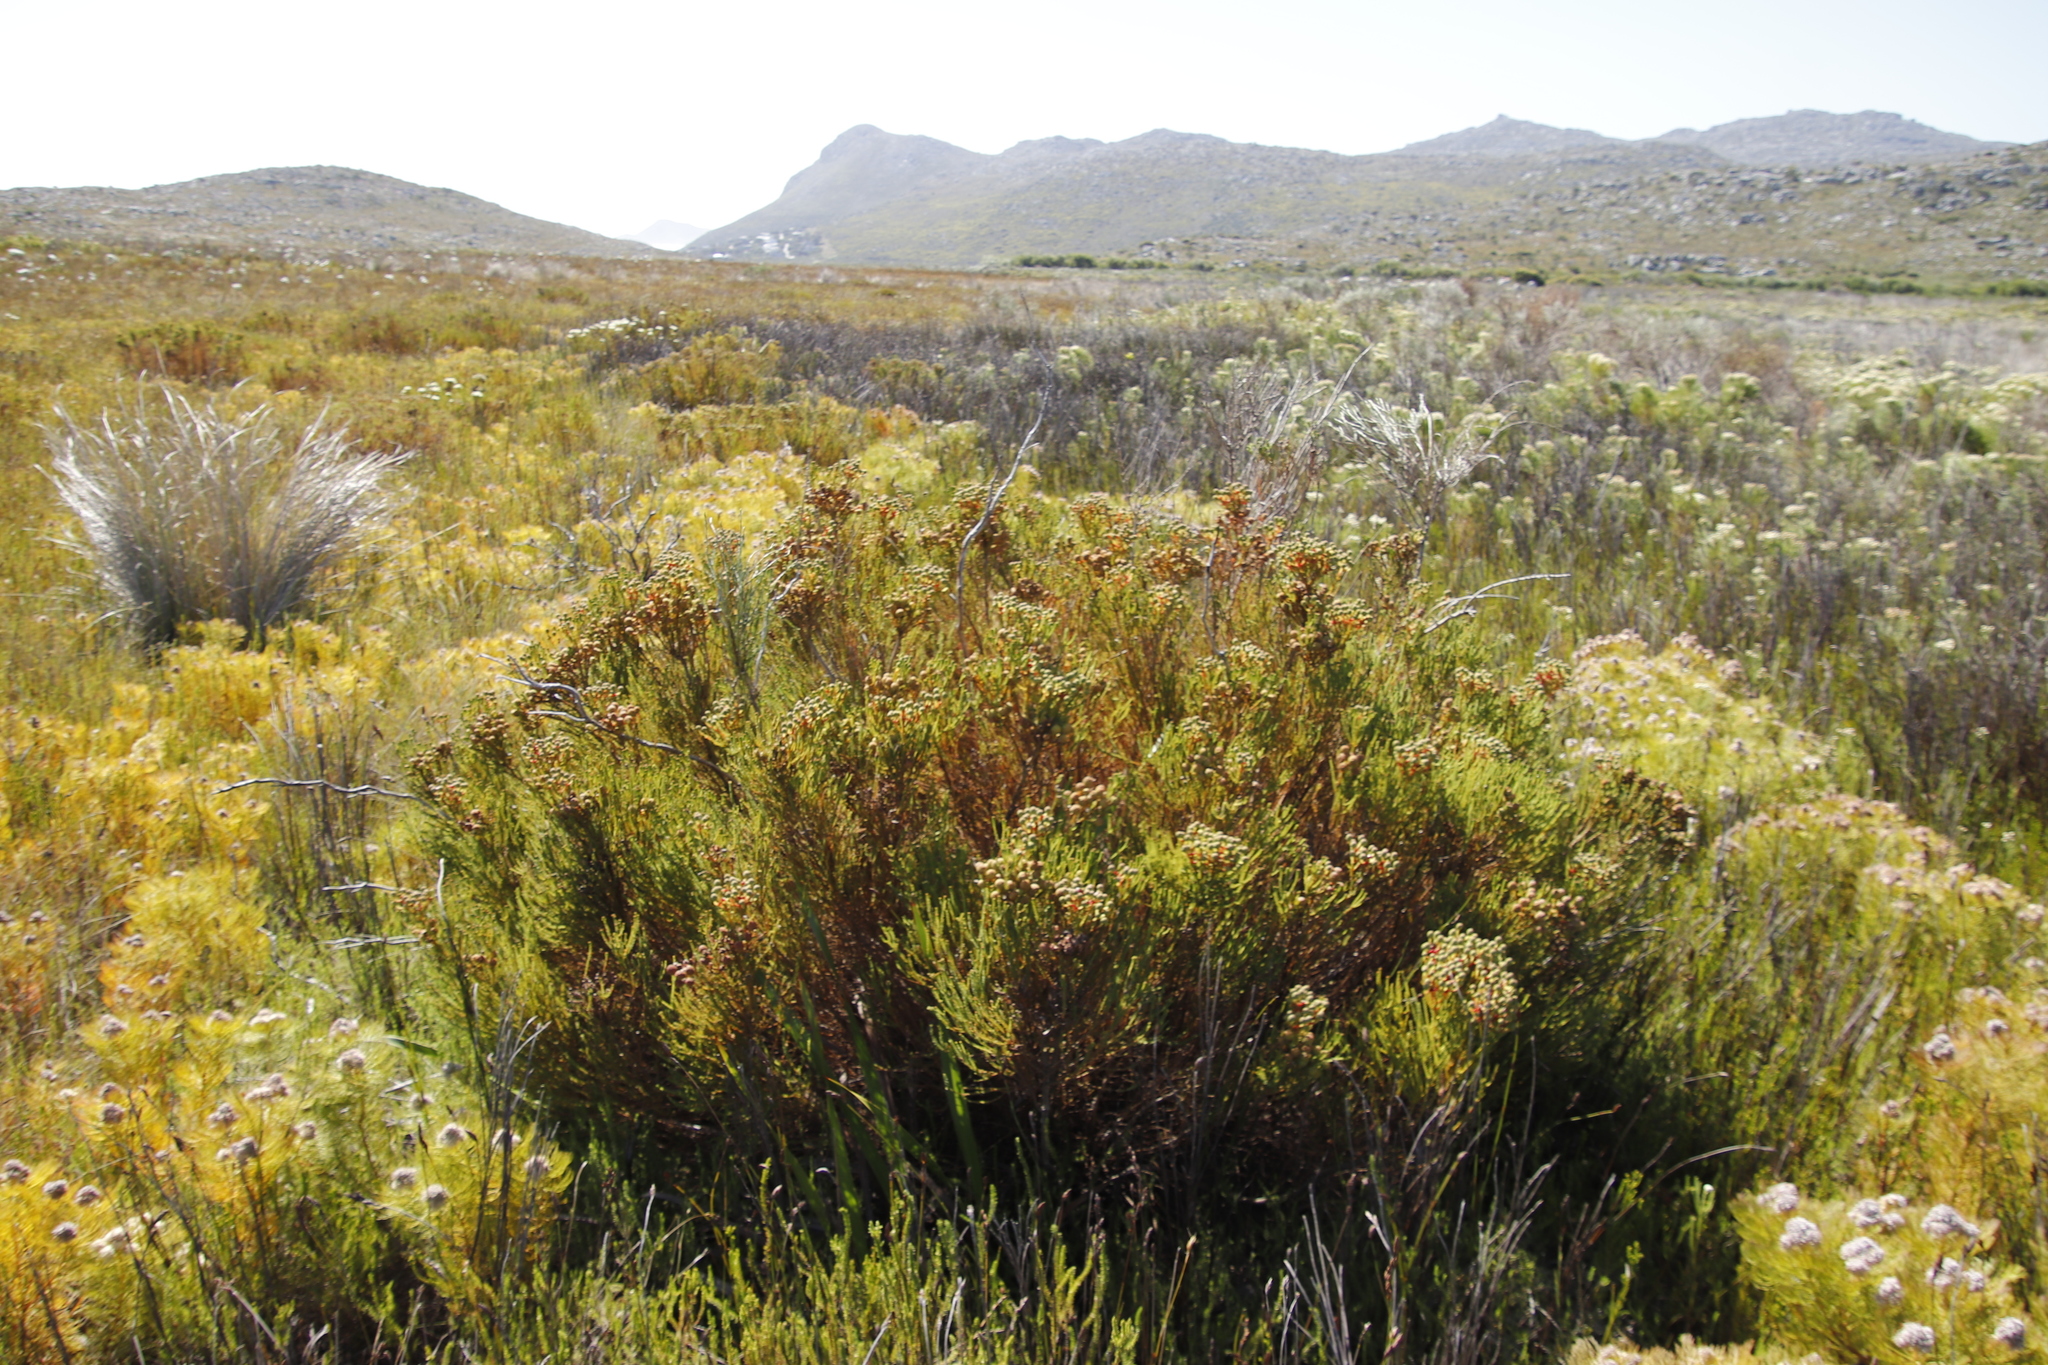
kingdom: Plantae
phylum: Tracheophyta
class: Magnoliopsida
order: Bruniales
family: Bruniaceae
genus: Berzelia
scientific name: Berzelia abrotanoides
